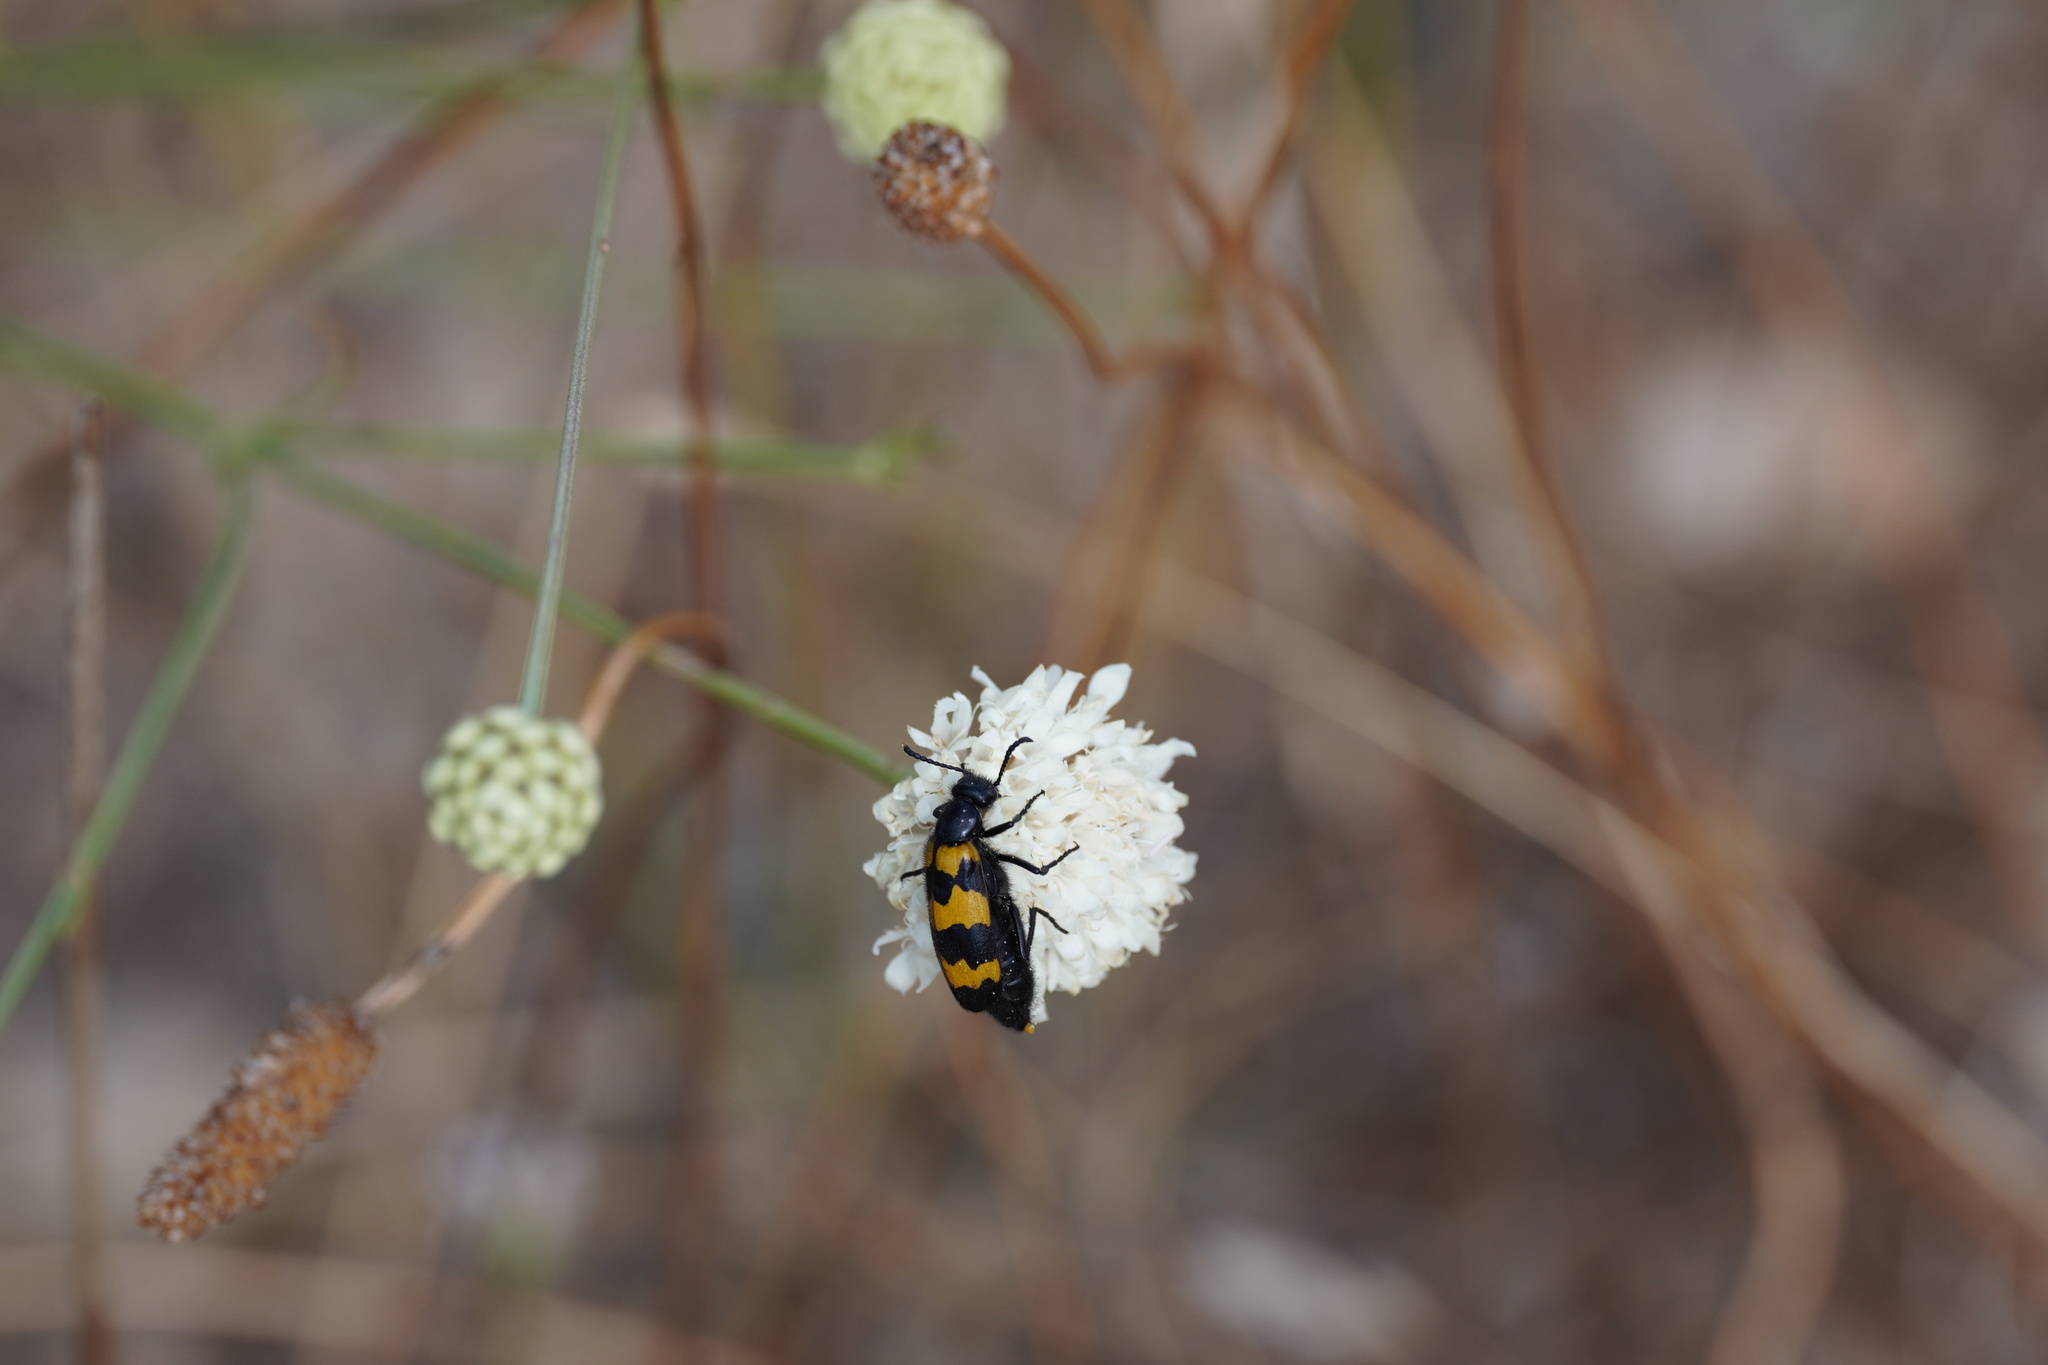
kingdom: Animalia
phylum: Arthropoda
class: Insecta
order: Coleoptera
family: Meloidae
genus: Mylabris
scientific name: Mylabris variabilis
